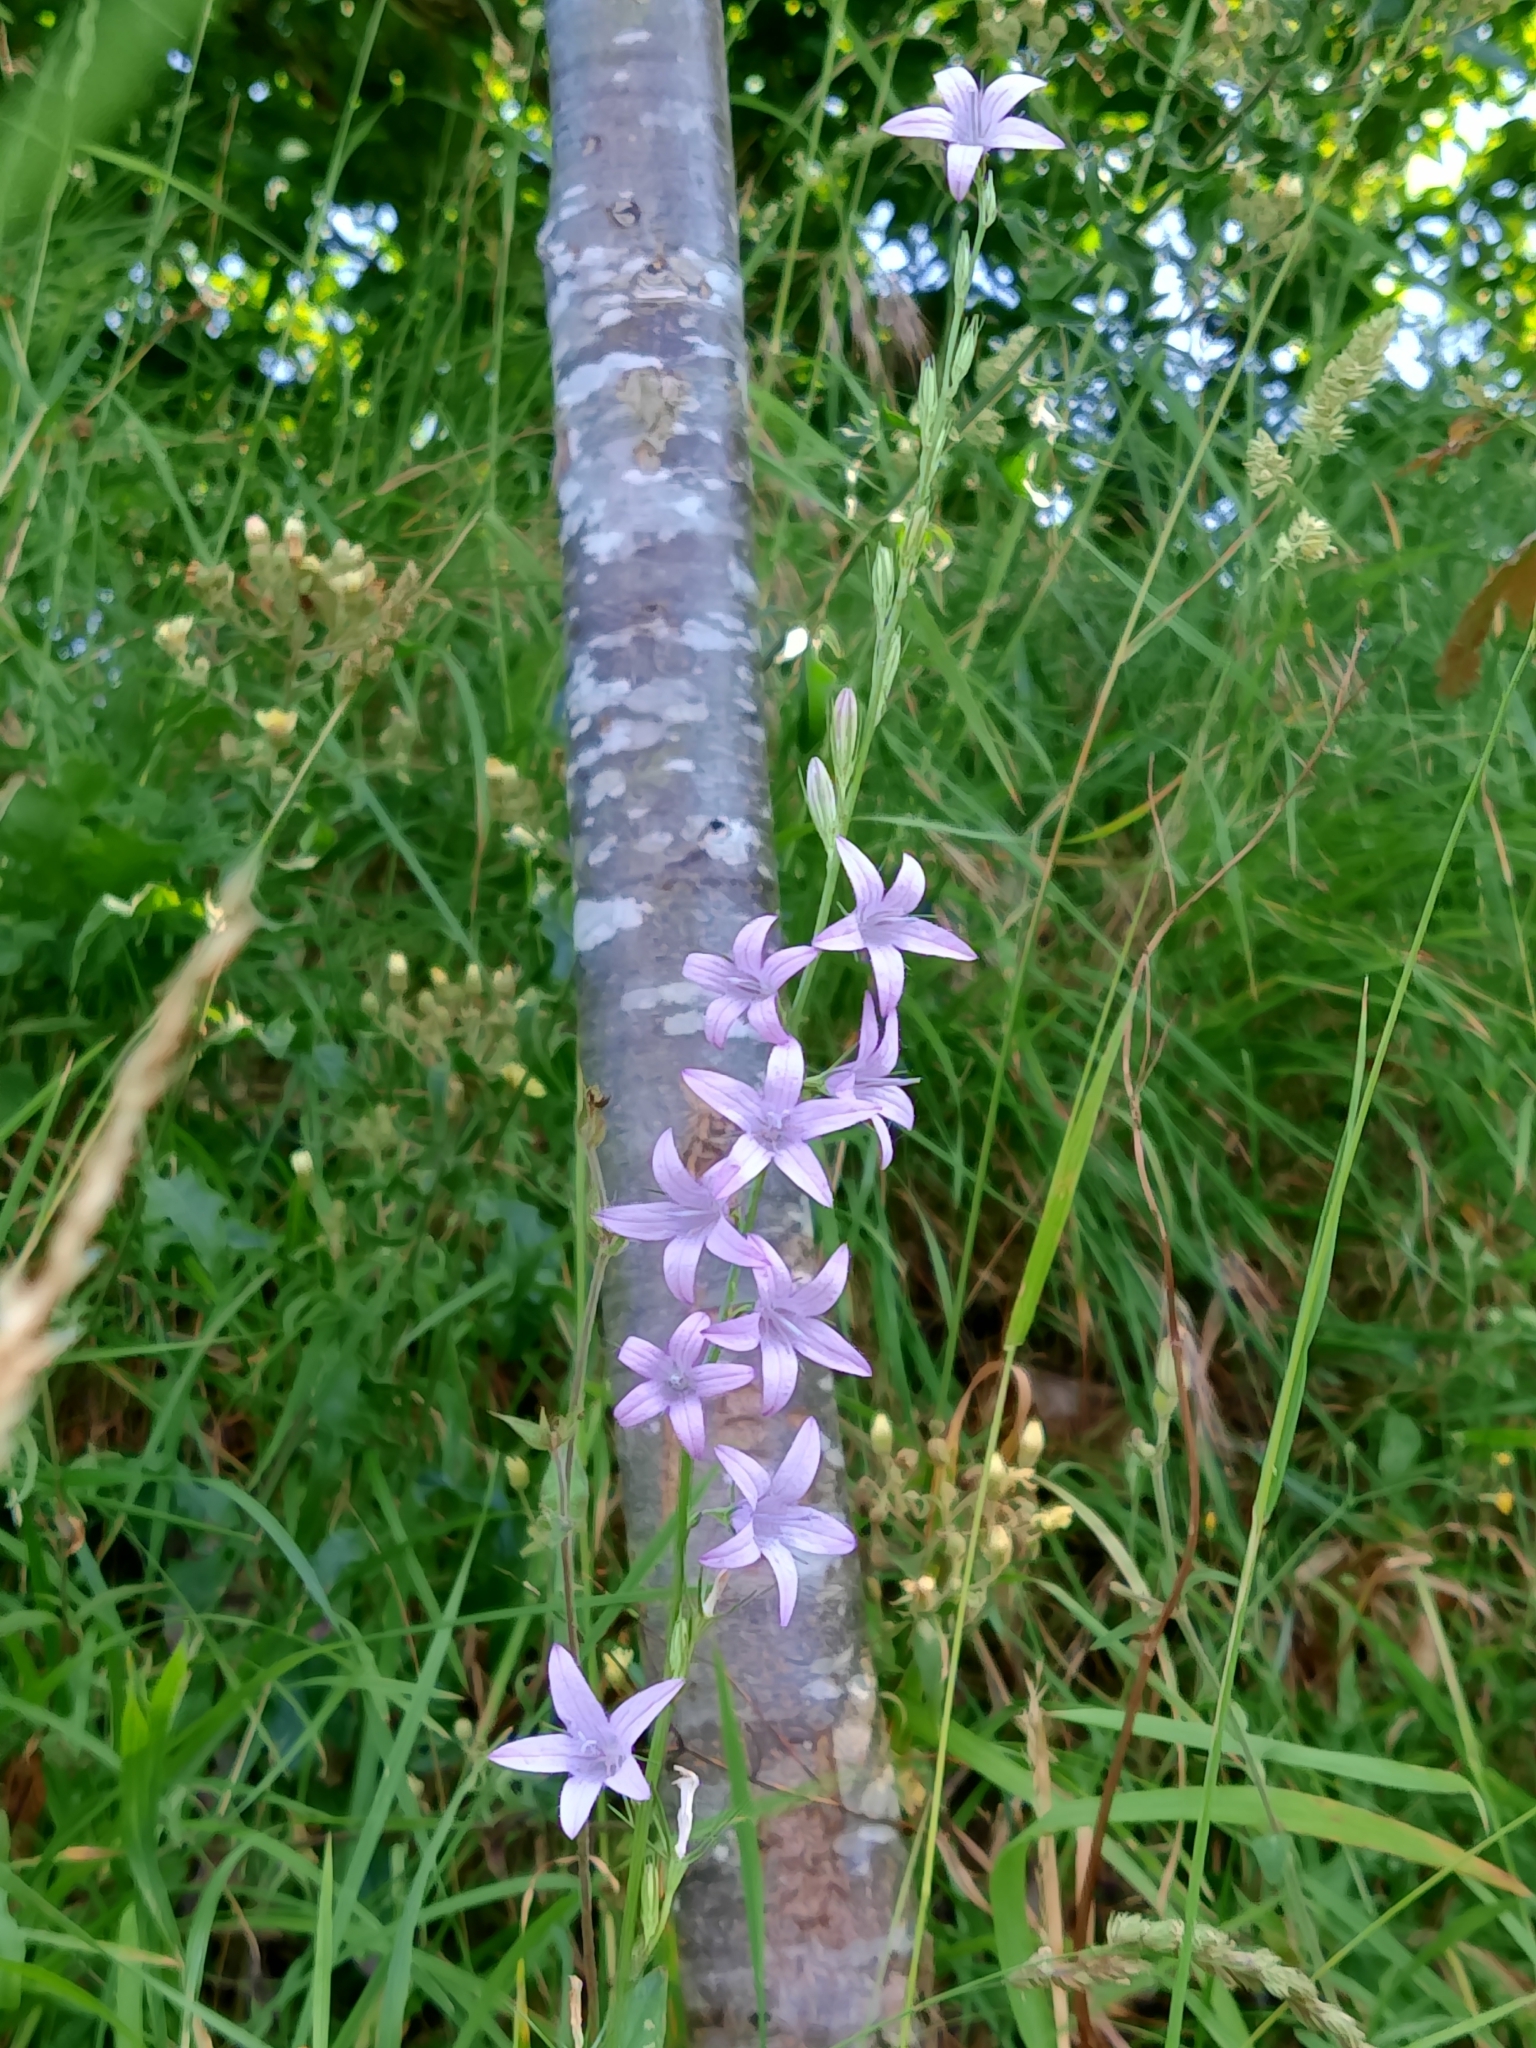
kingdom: Plantae
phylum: Tracheophyta
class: Magnoliopsida
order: Asterales
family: Campanulaceae
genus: Campanula
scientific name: Campanula rapunculus
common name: Rampion bellflower
